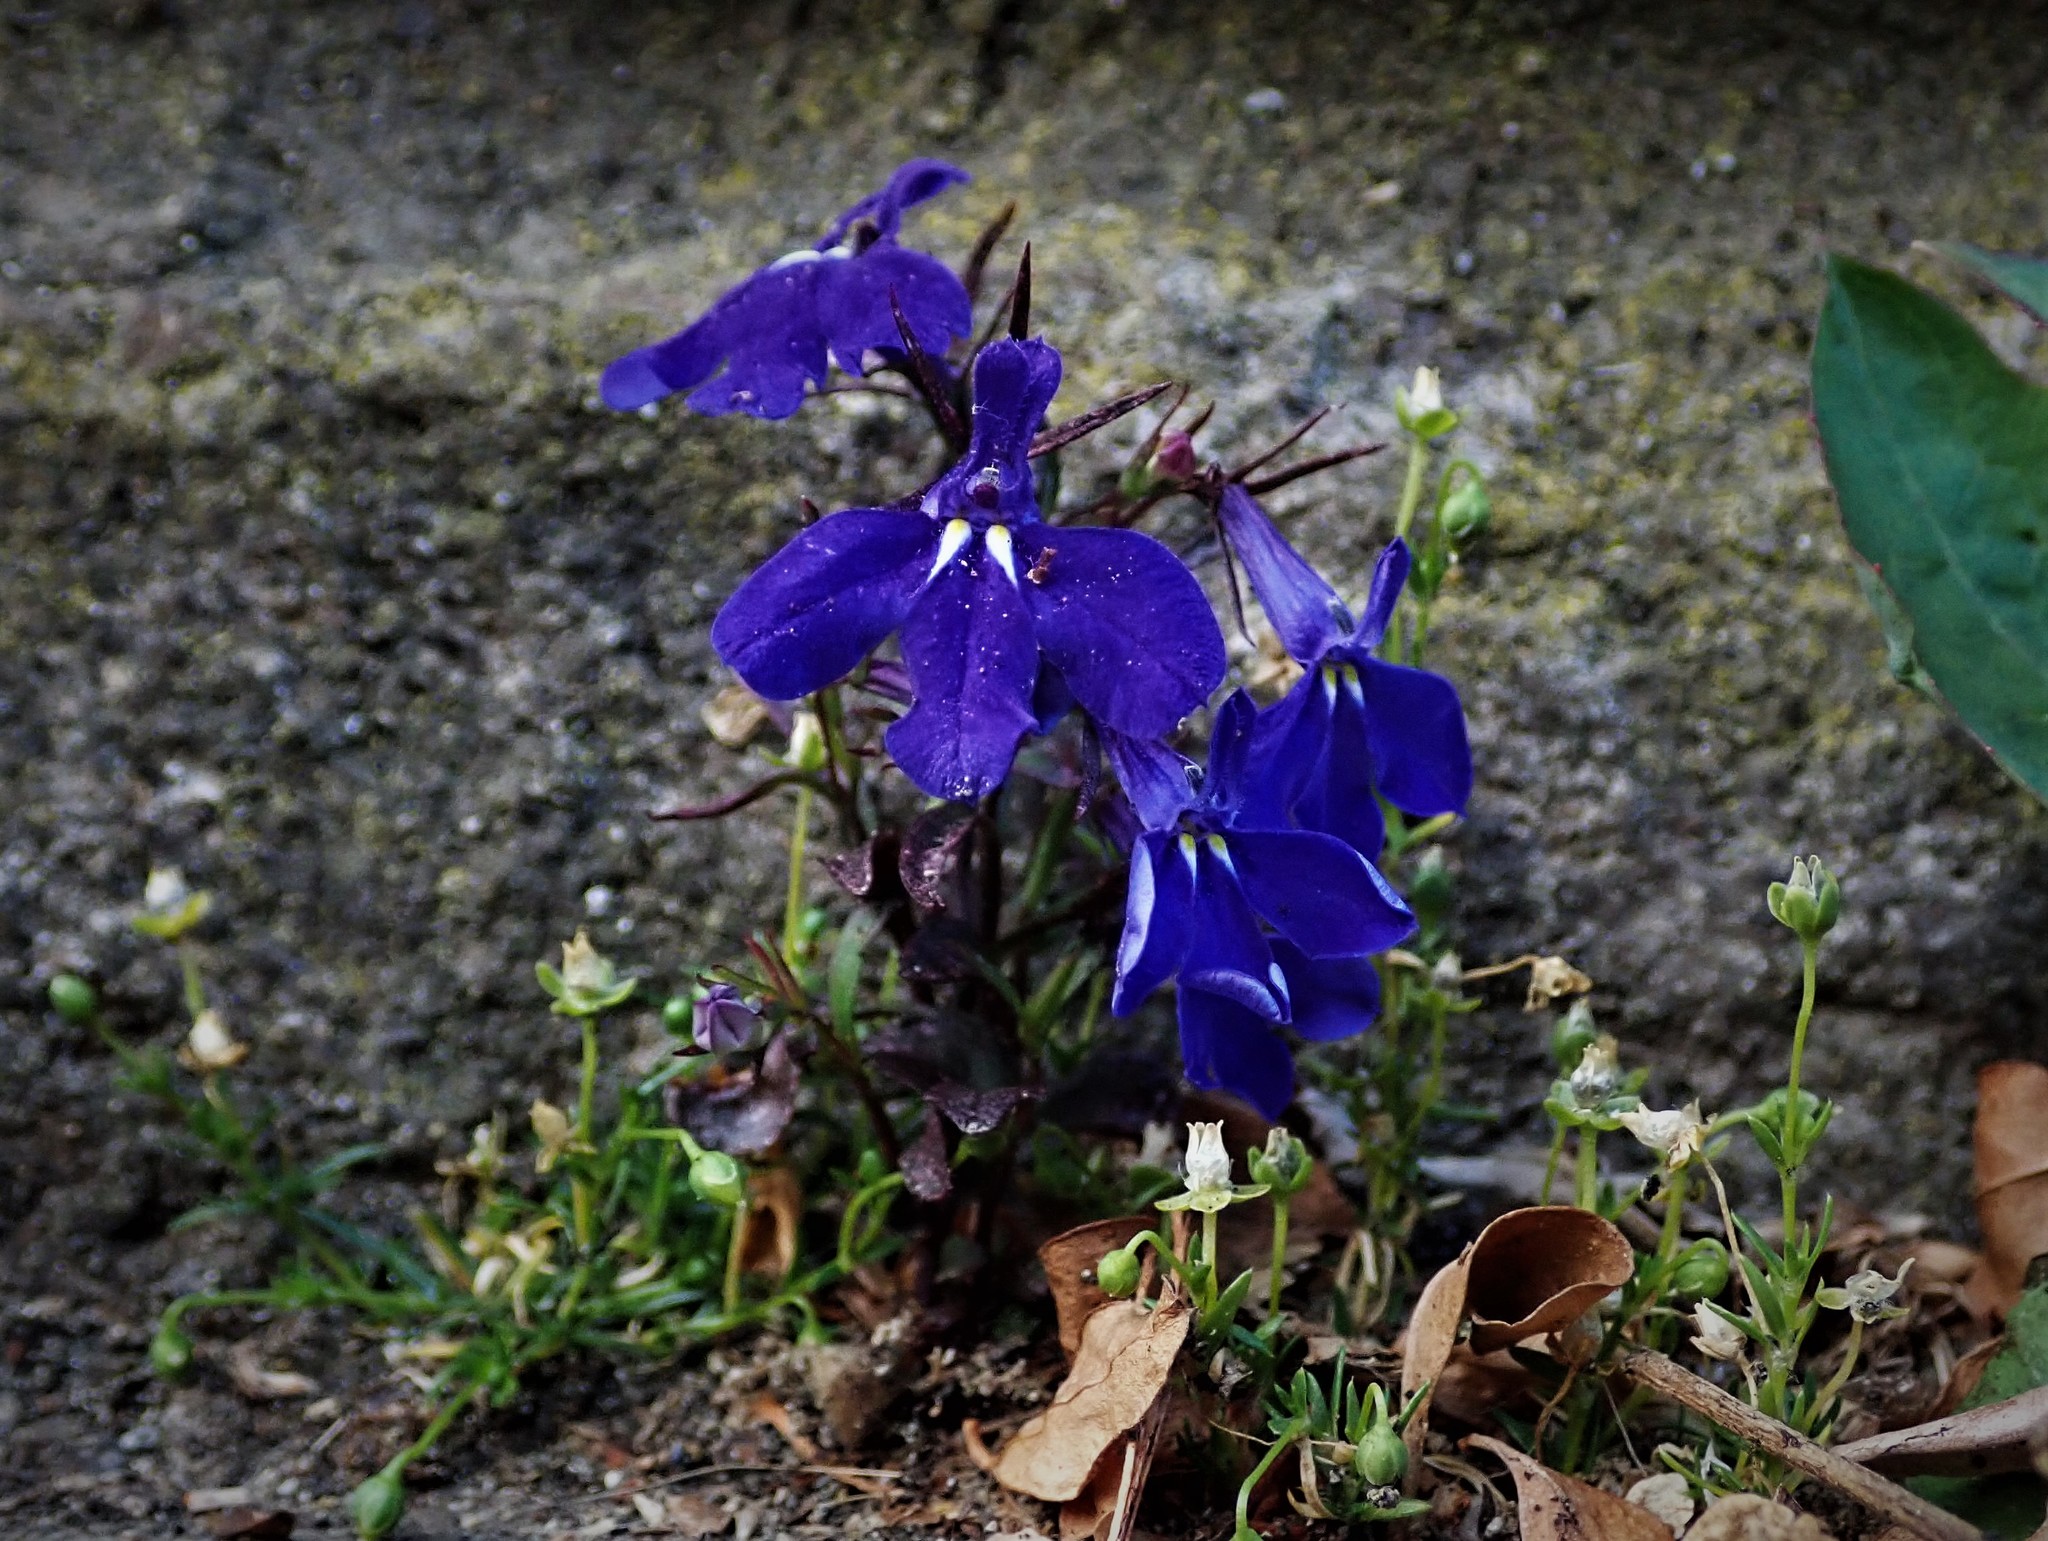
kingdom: Plantae
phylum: Tracheophyta
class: Magnoliopsida
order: Asterales
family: Campanulaceae
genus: Lobelia
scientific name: Lobelia erinus
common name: Edging lobelia
